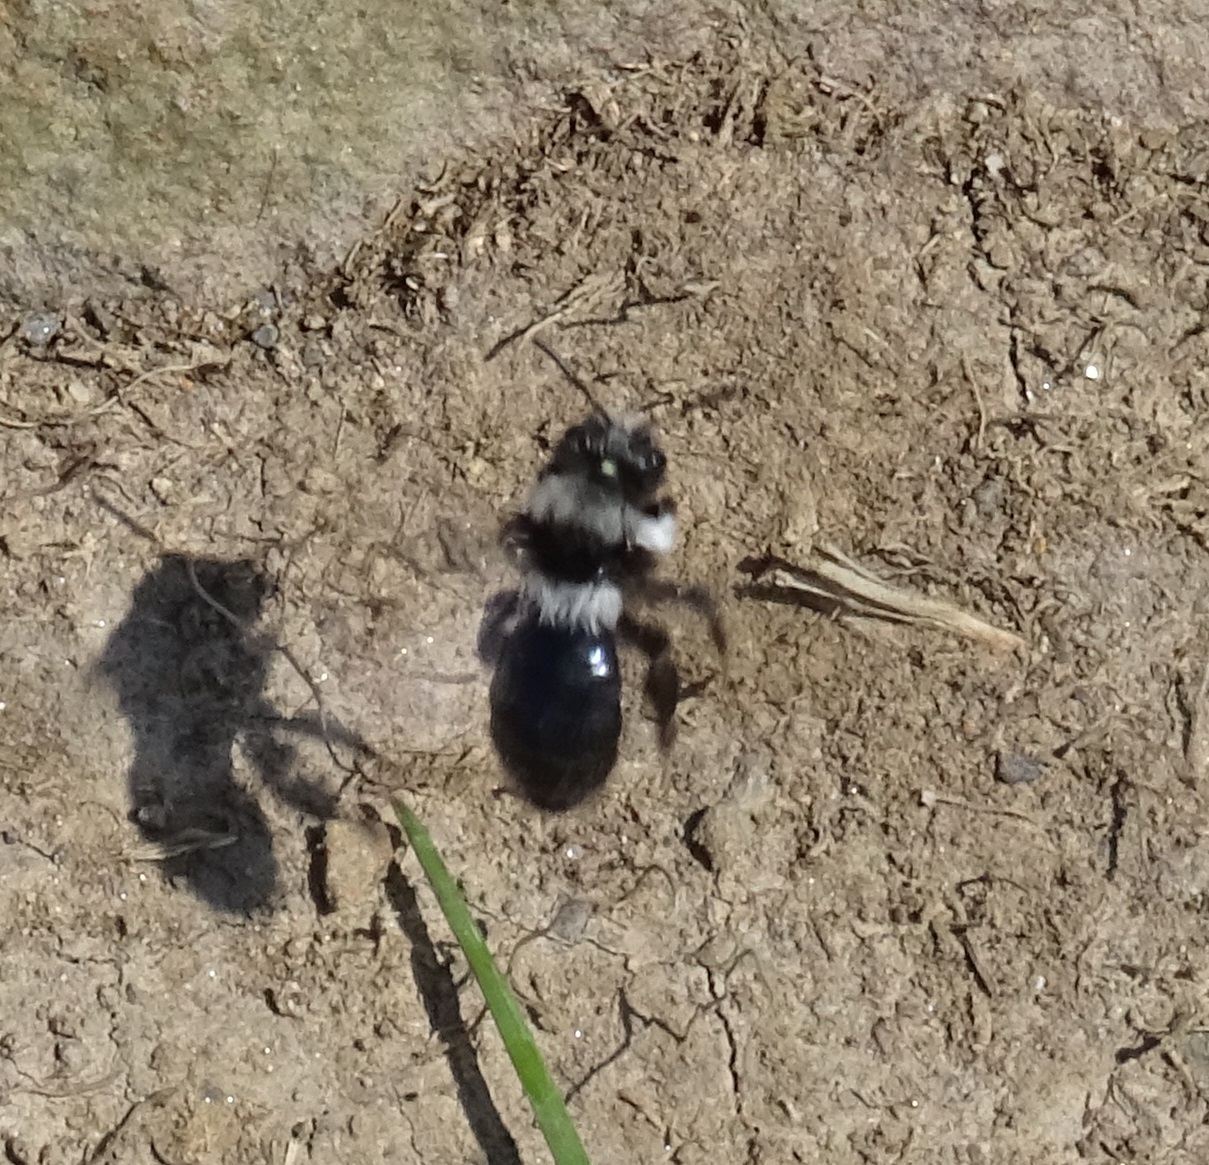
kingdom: Animalia
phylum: Arthropoda
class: Insecta
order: Hymenoptera
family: Andrenidae
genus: Andrena
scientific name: Andrena cineraria
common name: Ashy mining bee
